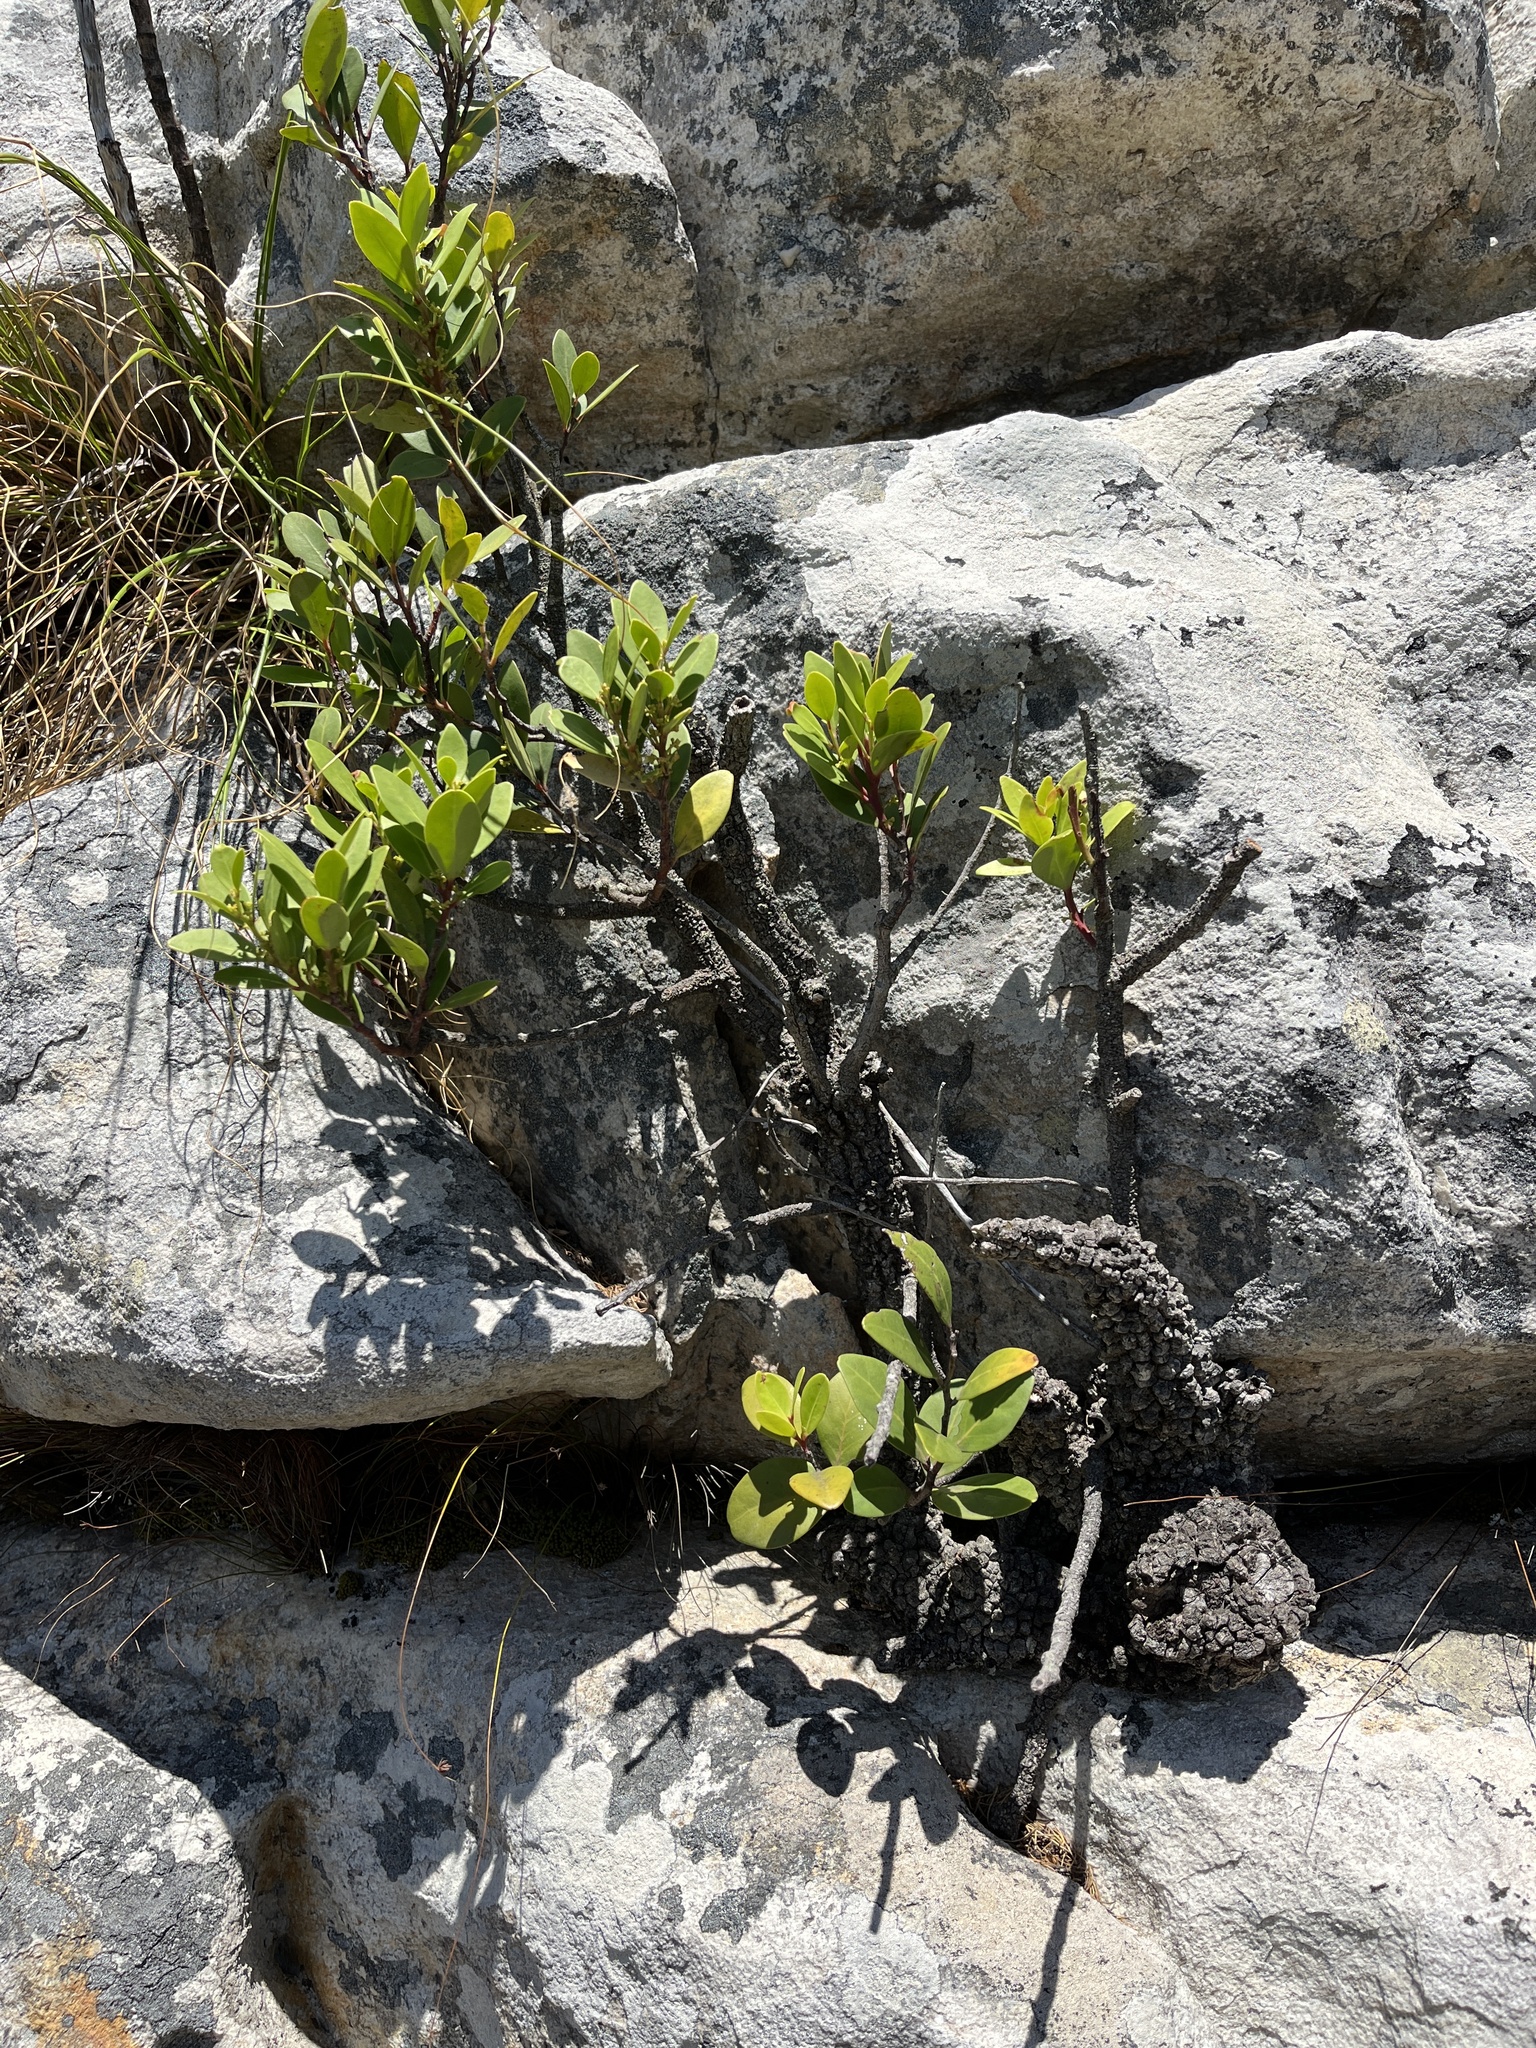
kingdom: Plantae
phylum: Tracheophyta
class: Magnoliopsida
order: Celastrales
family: Celastraceae
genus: Gymnosporia
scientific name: Gymnosporia laurina
